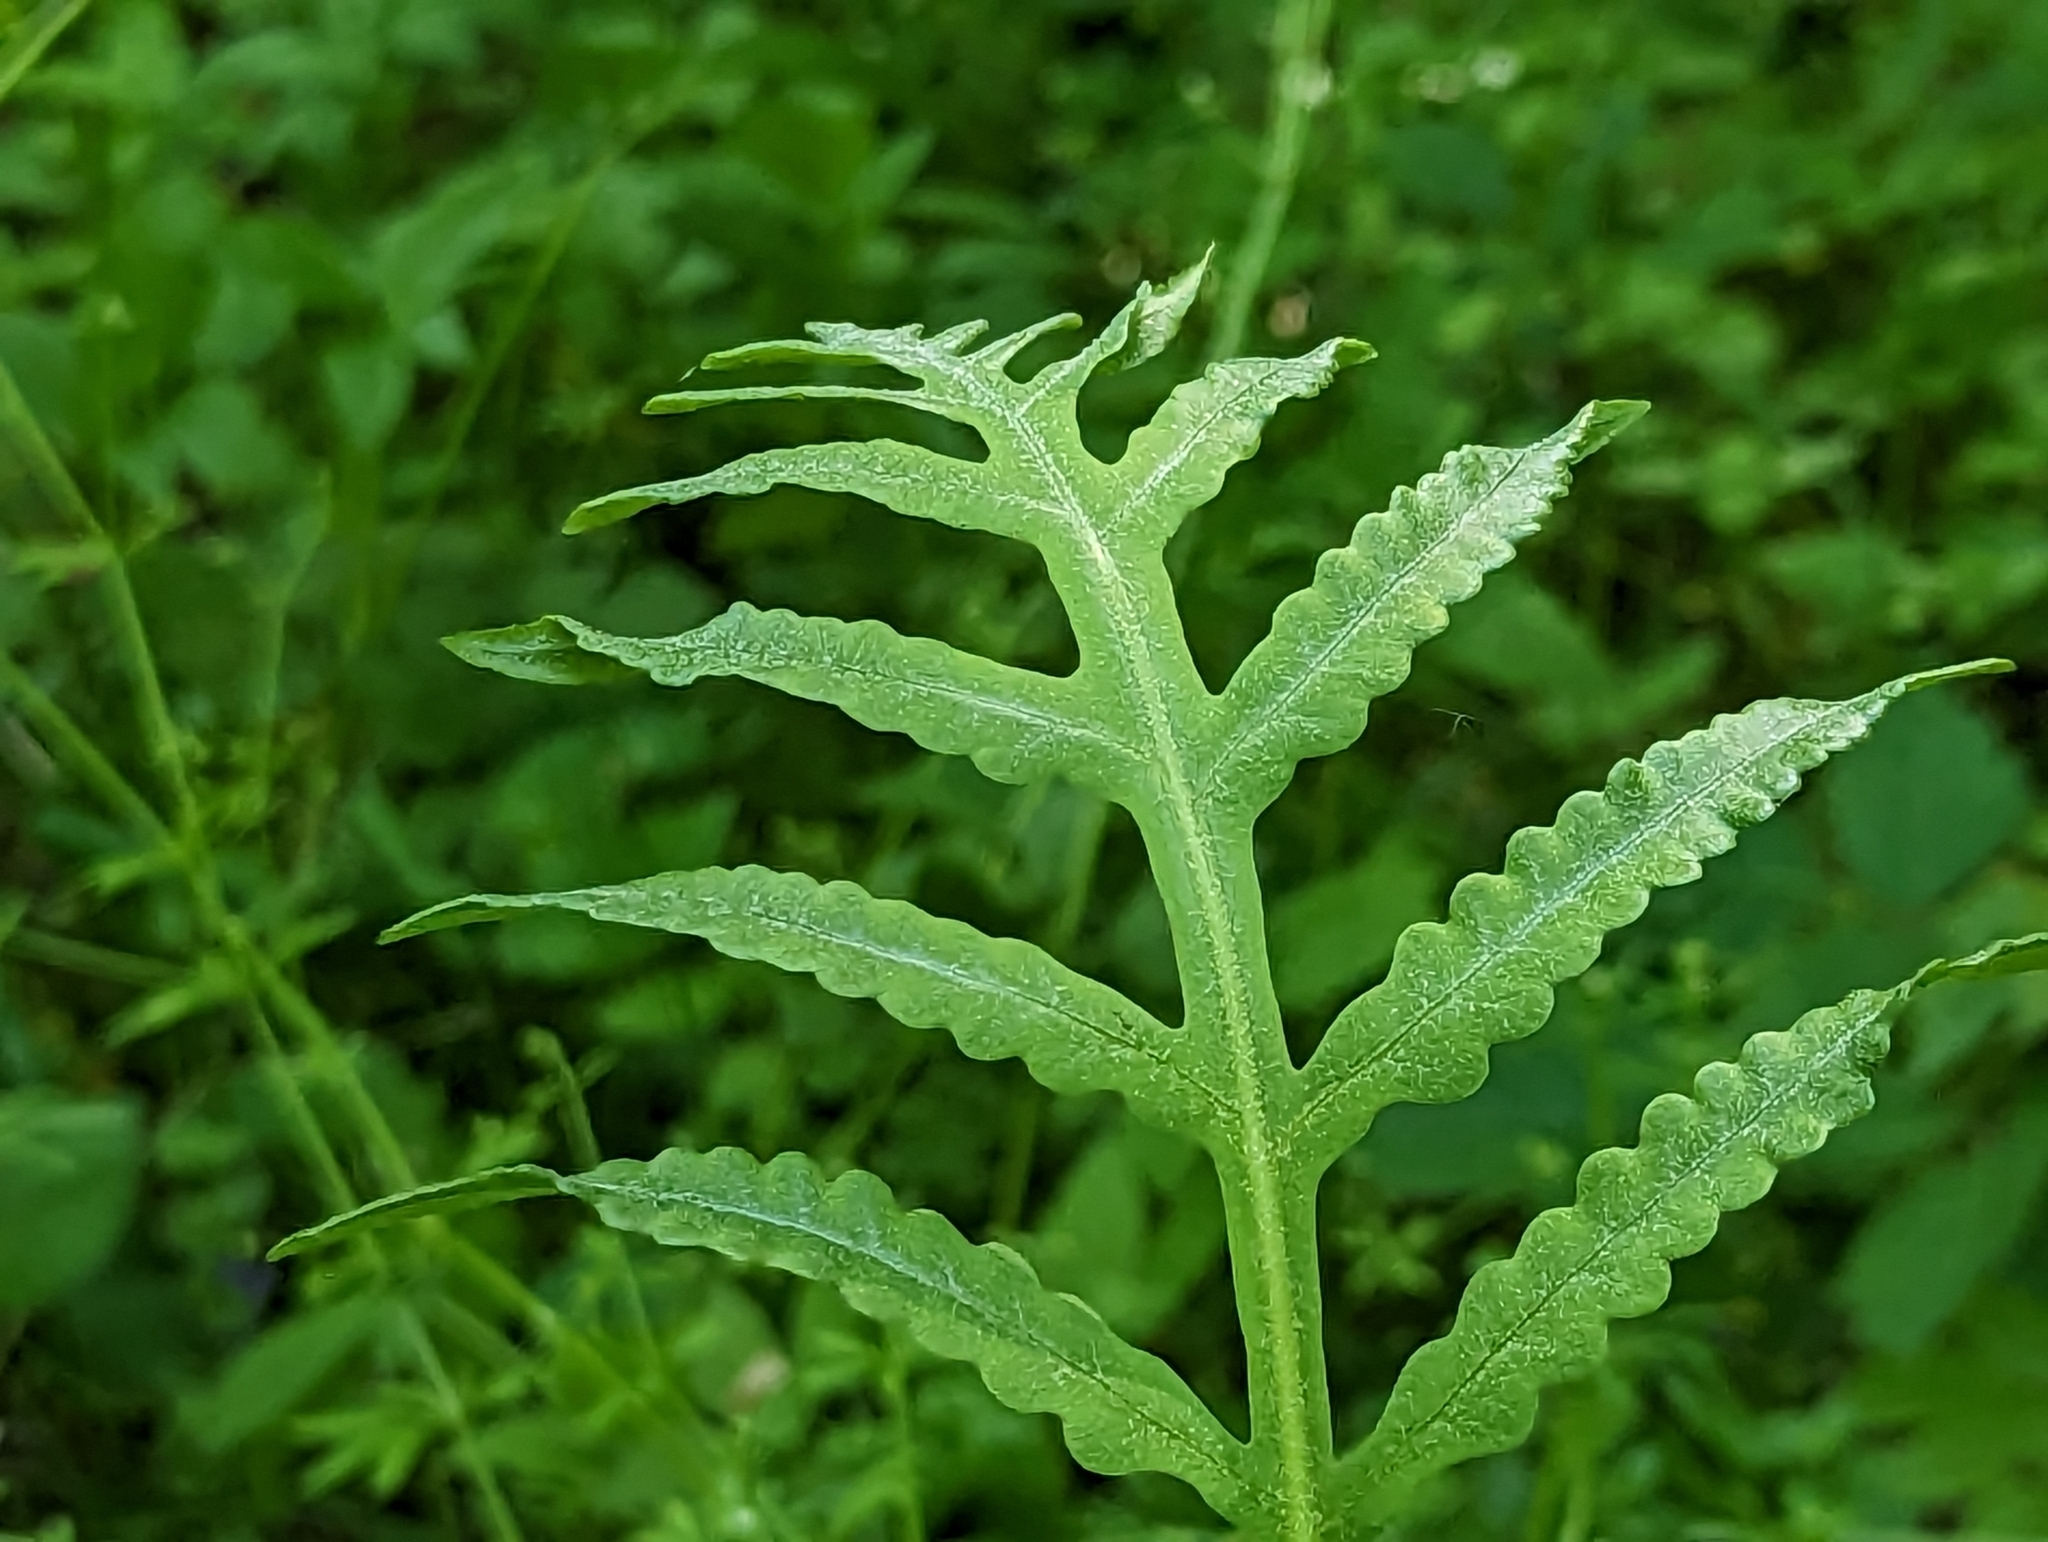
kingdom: Plantae
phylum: Tracheophyta
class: Polypodiopsida
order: Polypodiales
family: Onocleaceae
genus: Onoclea
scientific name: Onoclea sensibilis
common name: Sensitive fern
